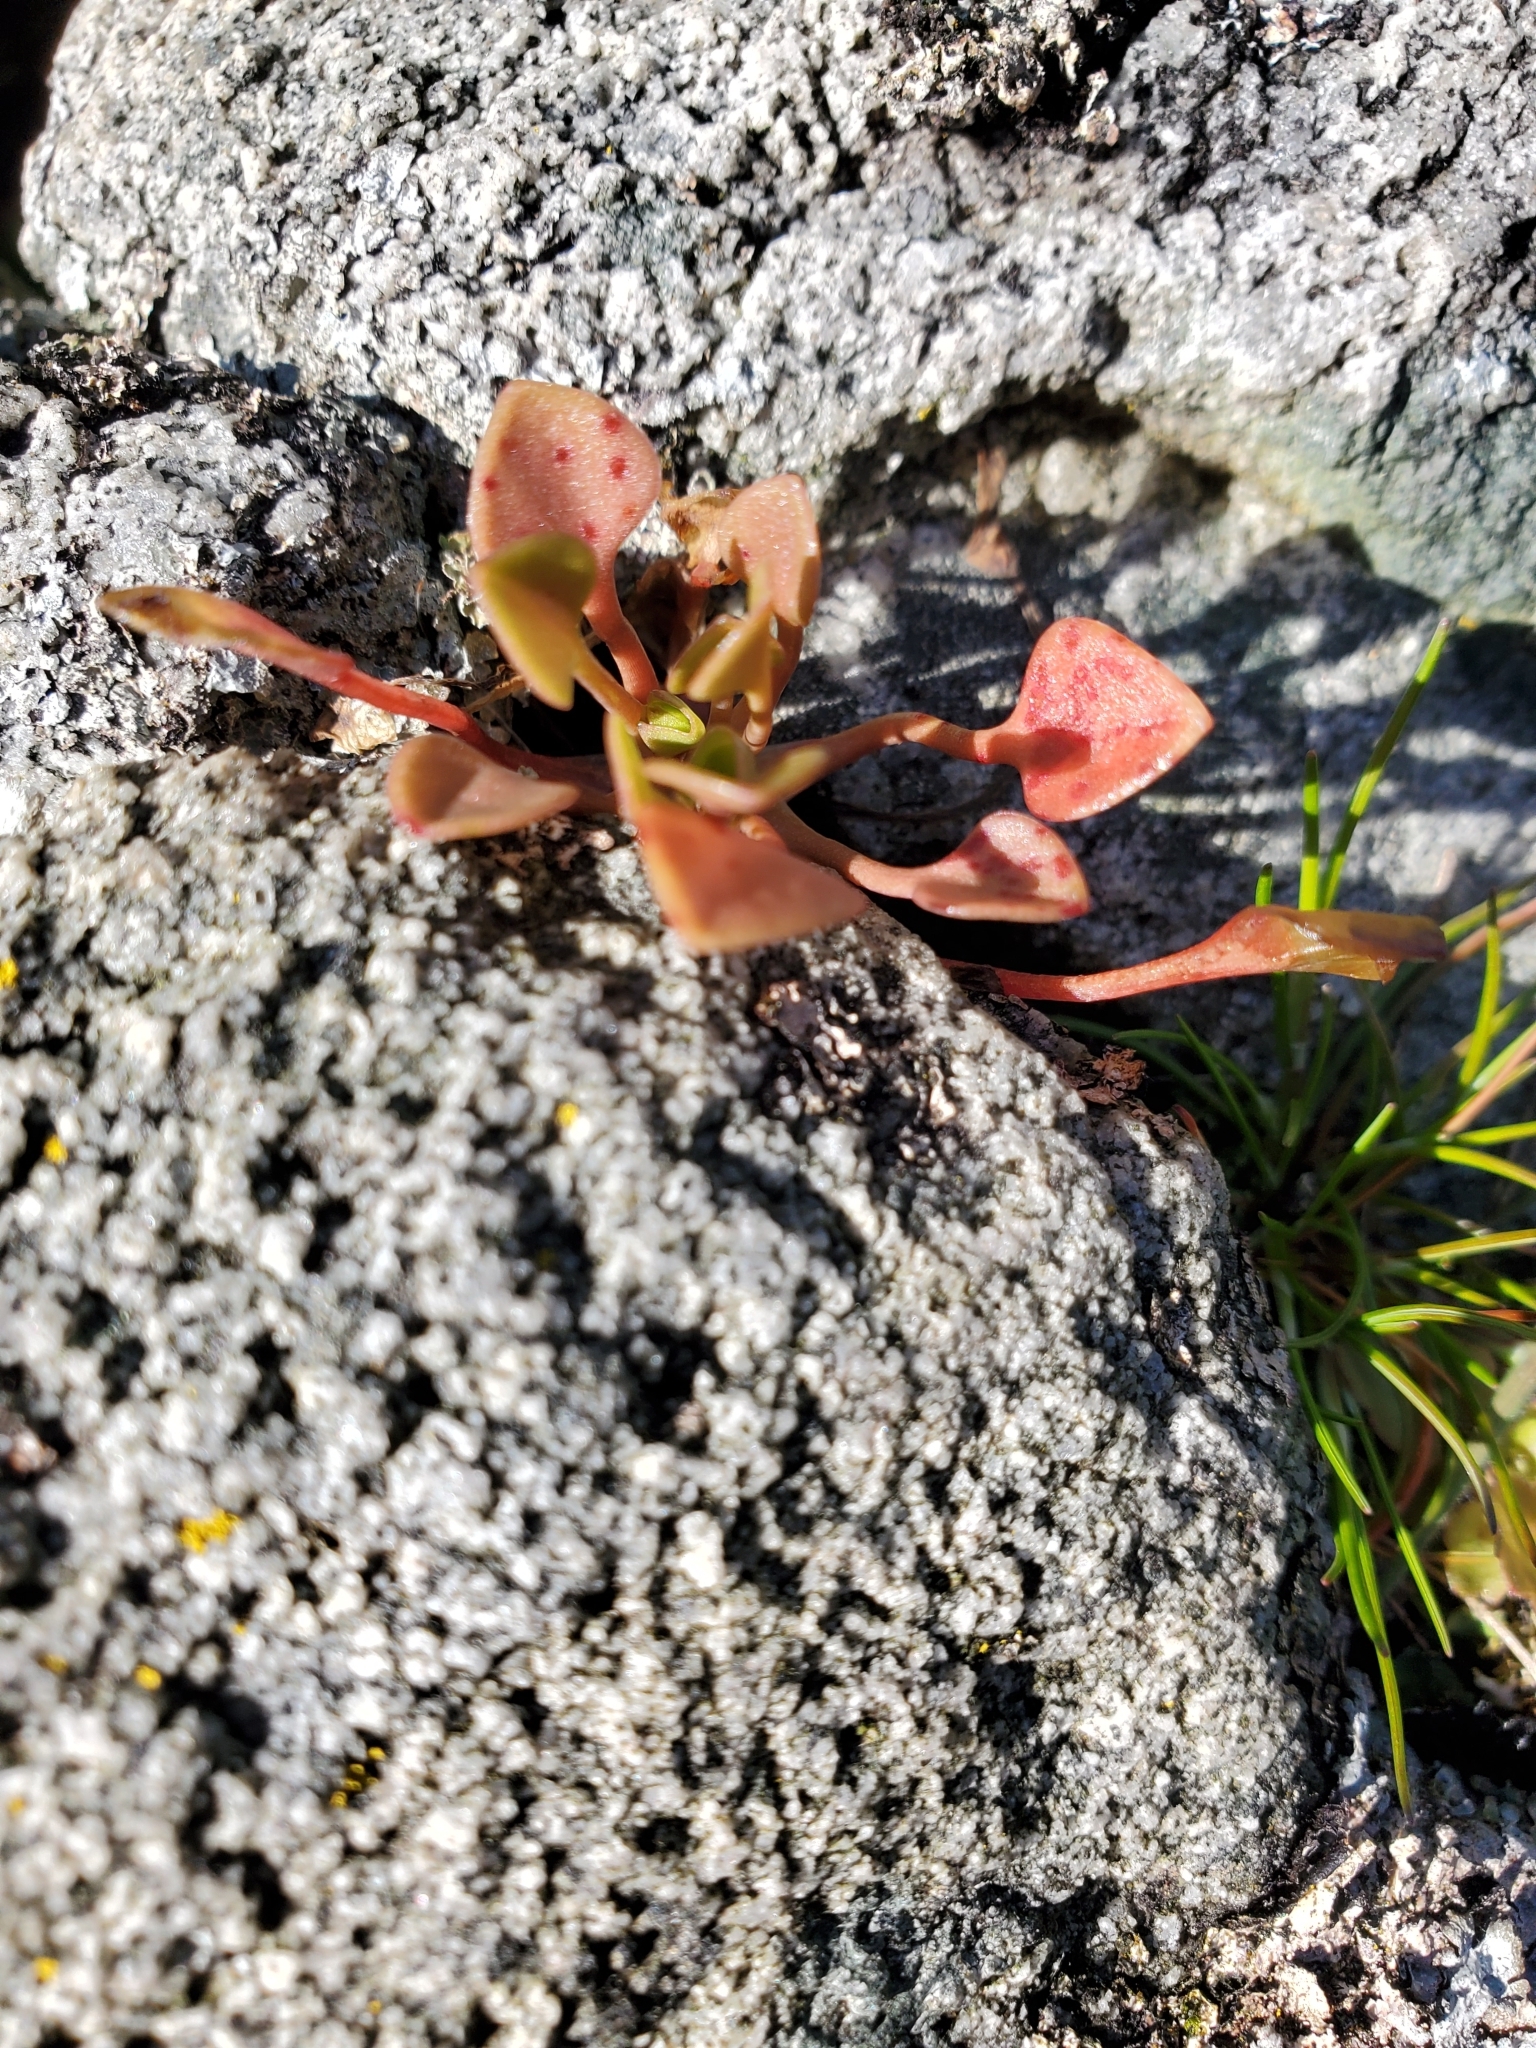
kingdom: Plantae
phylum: Tracheophyta
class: Magnoliopsida
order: Caryophyllales
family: Montiaceae
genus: Claytonia
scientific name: Claytonia rubra
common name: Erubescent miner's-lettuce
